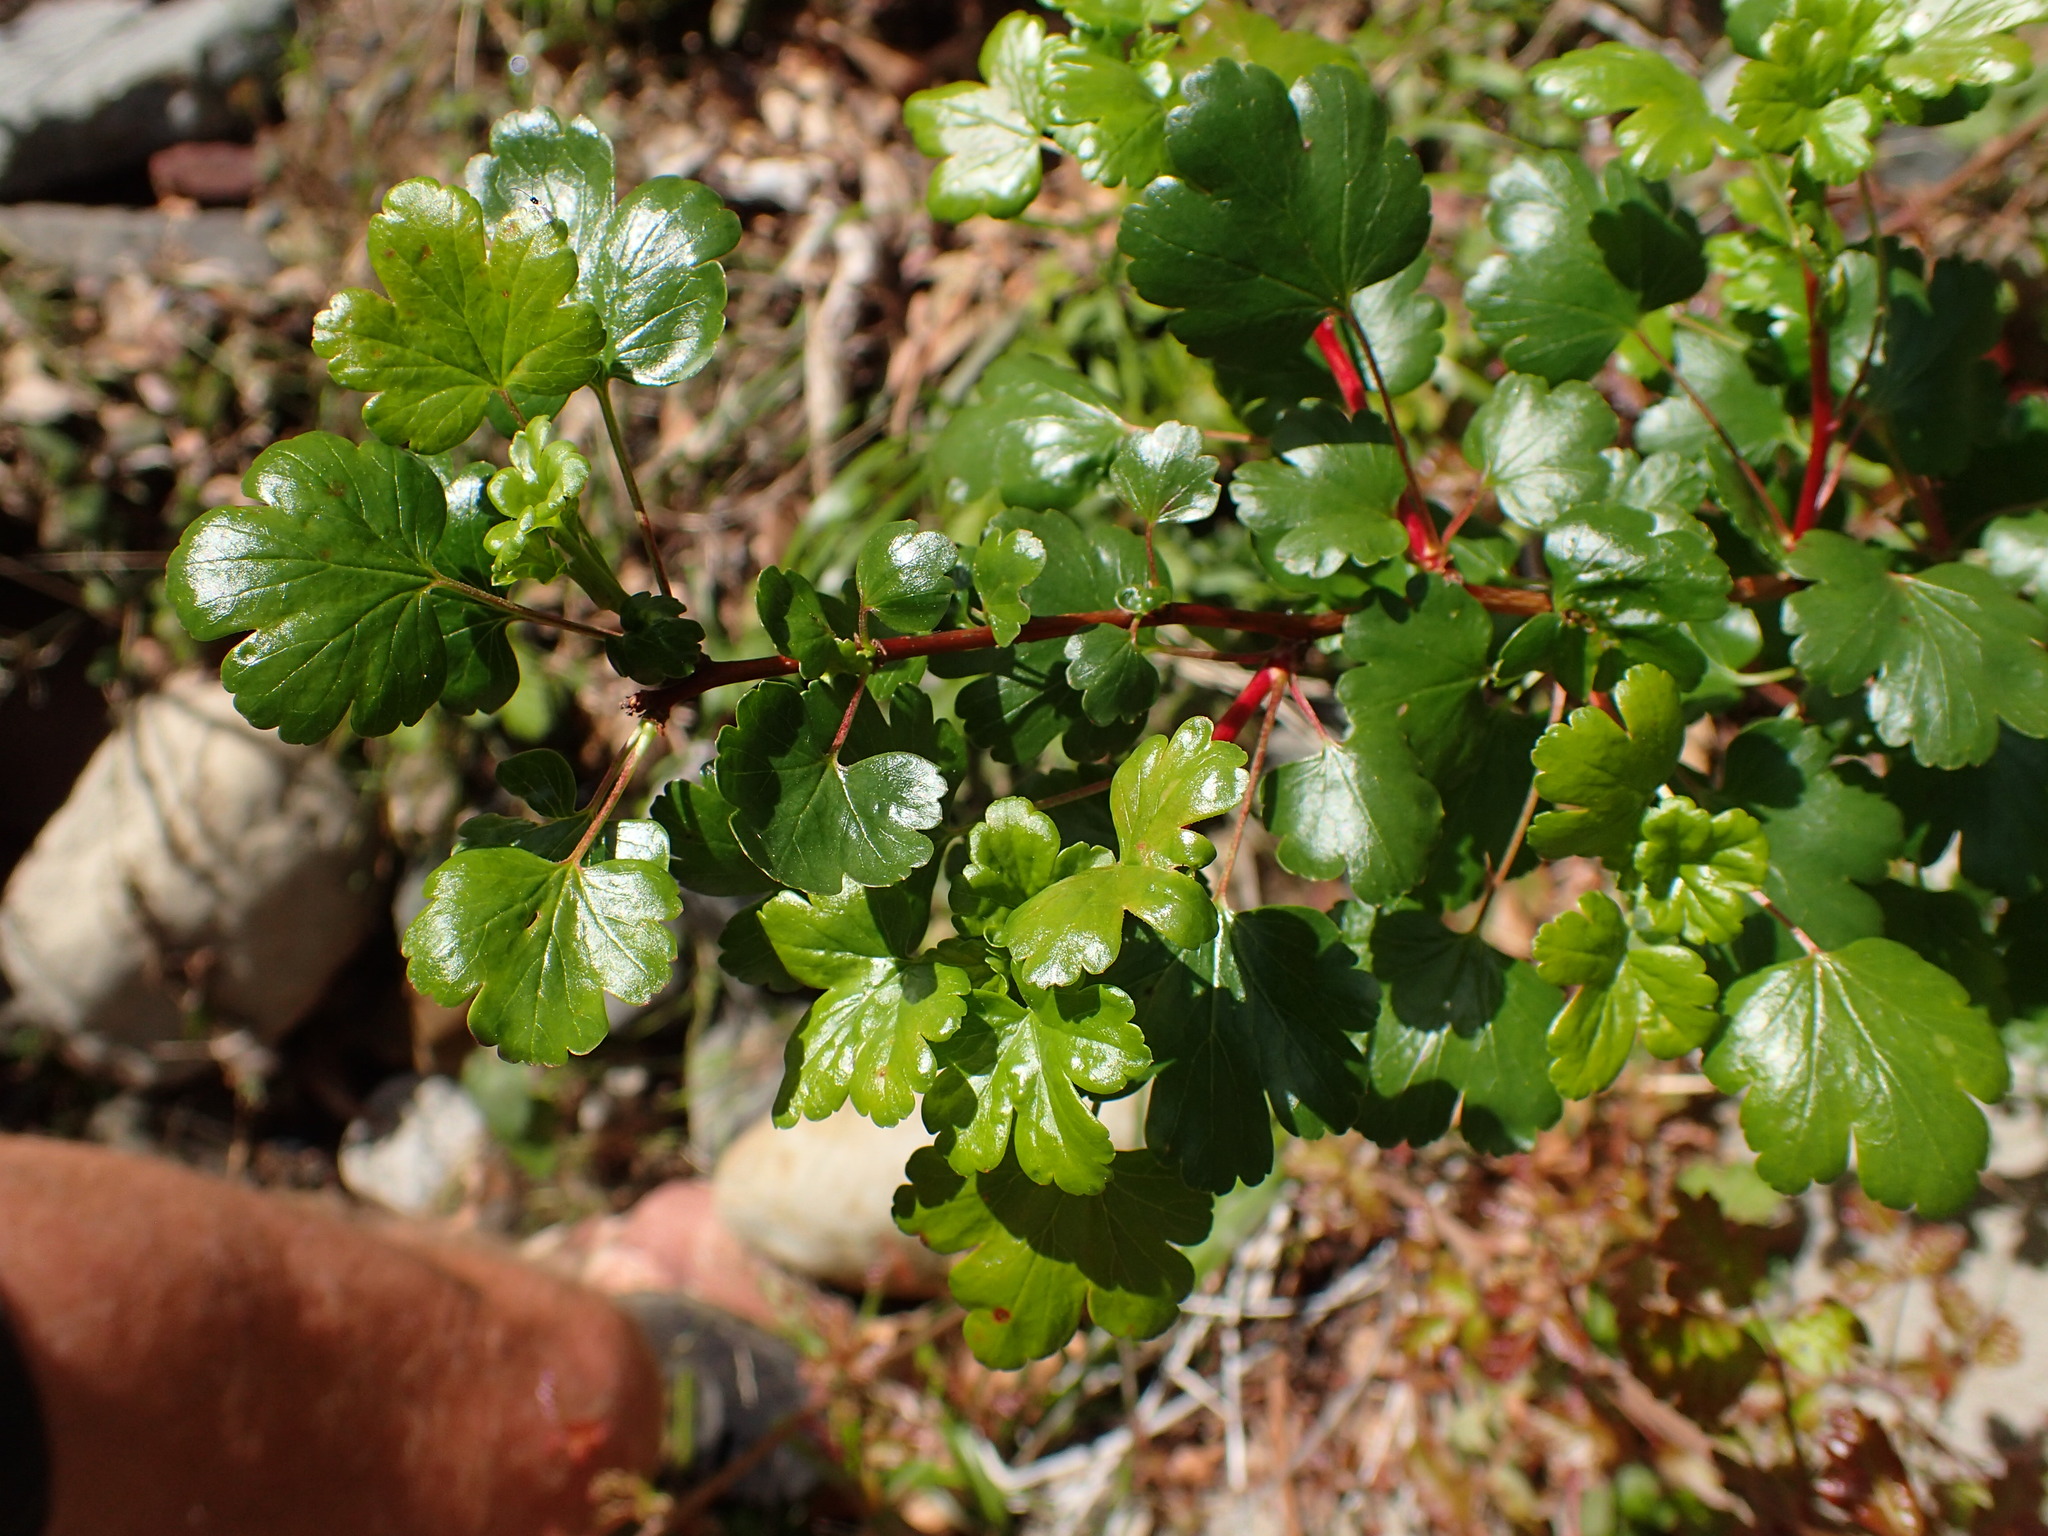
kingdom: Plantae
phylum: Tracheophyta
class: Magnoliopsida
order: Saxifragales
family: Grossulariaceae
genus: Ribes
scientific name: Ribes speciosum
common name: Fuchsia-flower gooseberry
